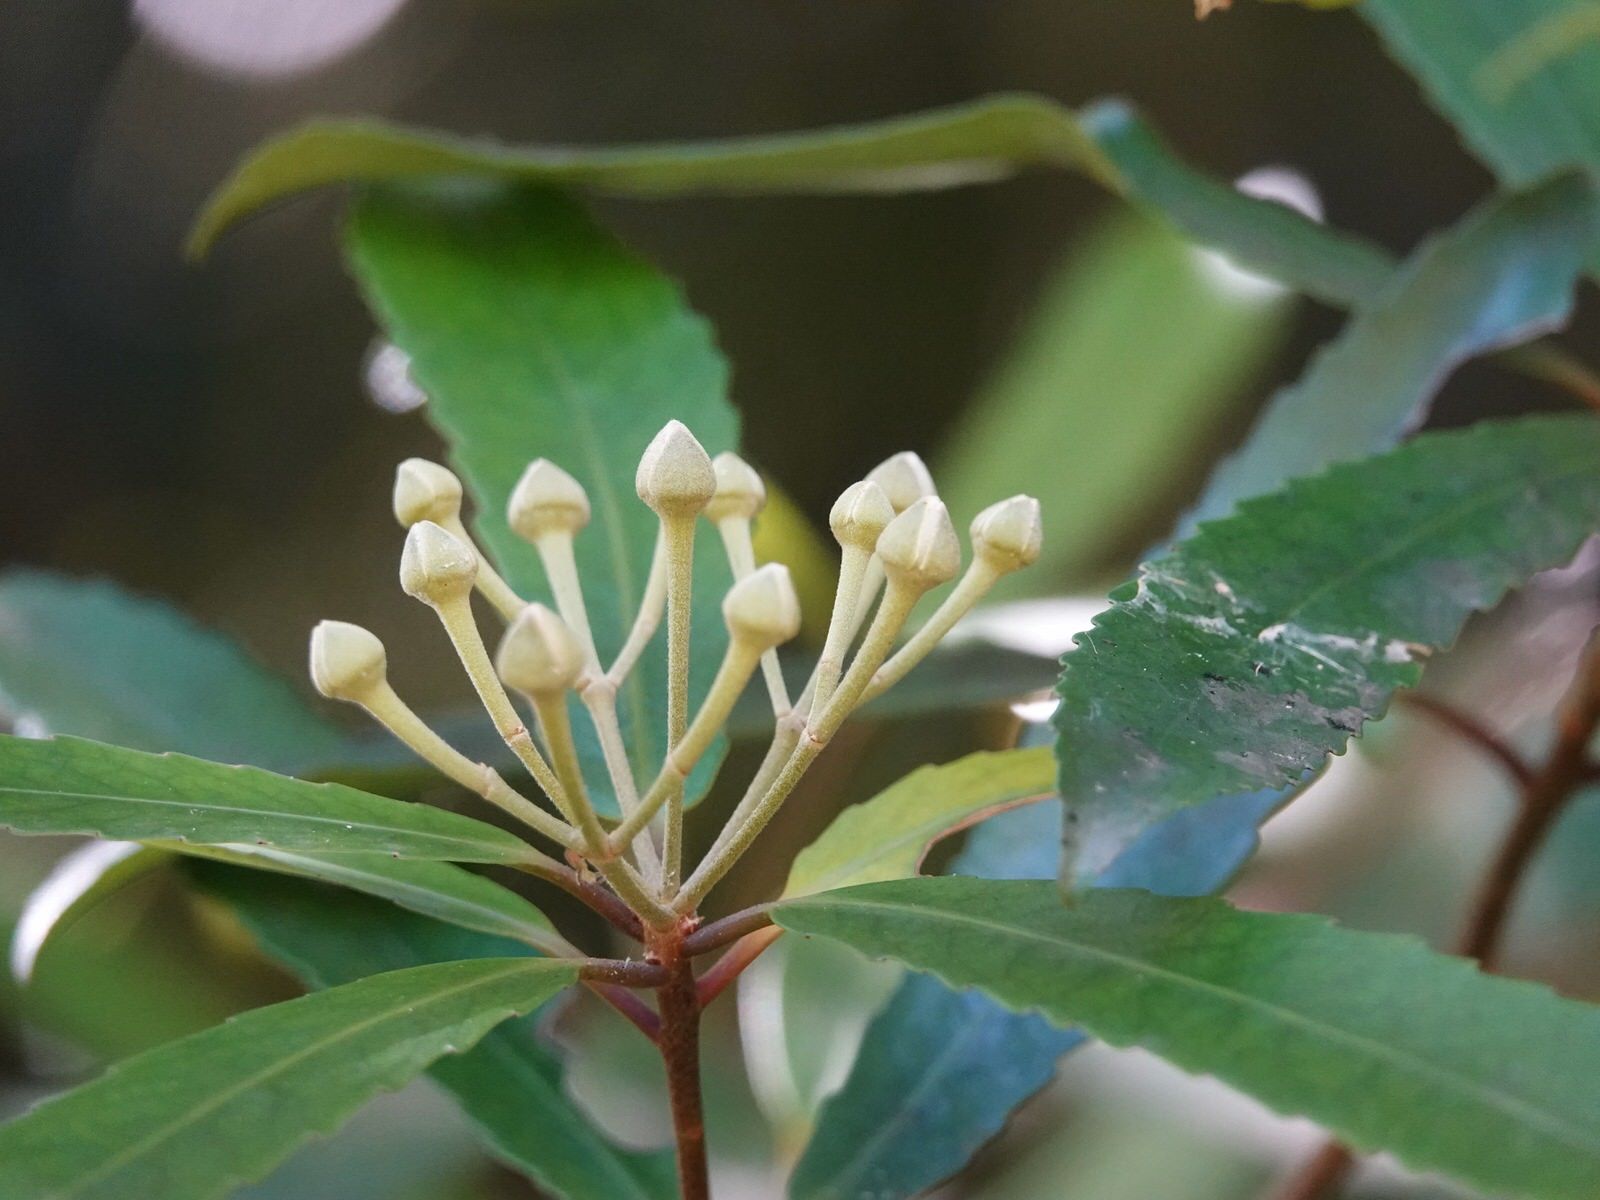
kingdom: Plantae
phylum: Tracheophyta
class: Magnoliopsida
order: Crossosomatales
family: Ixerbaceae
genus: Ixerba
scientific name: Ixerba brexioides
